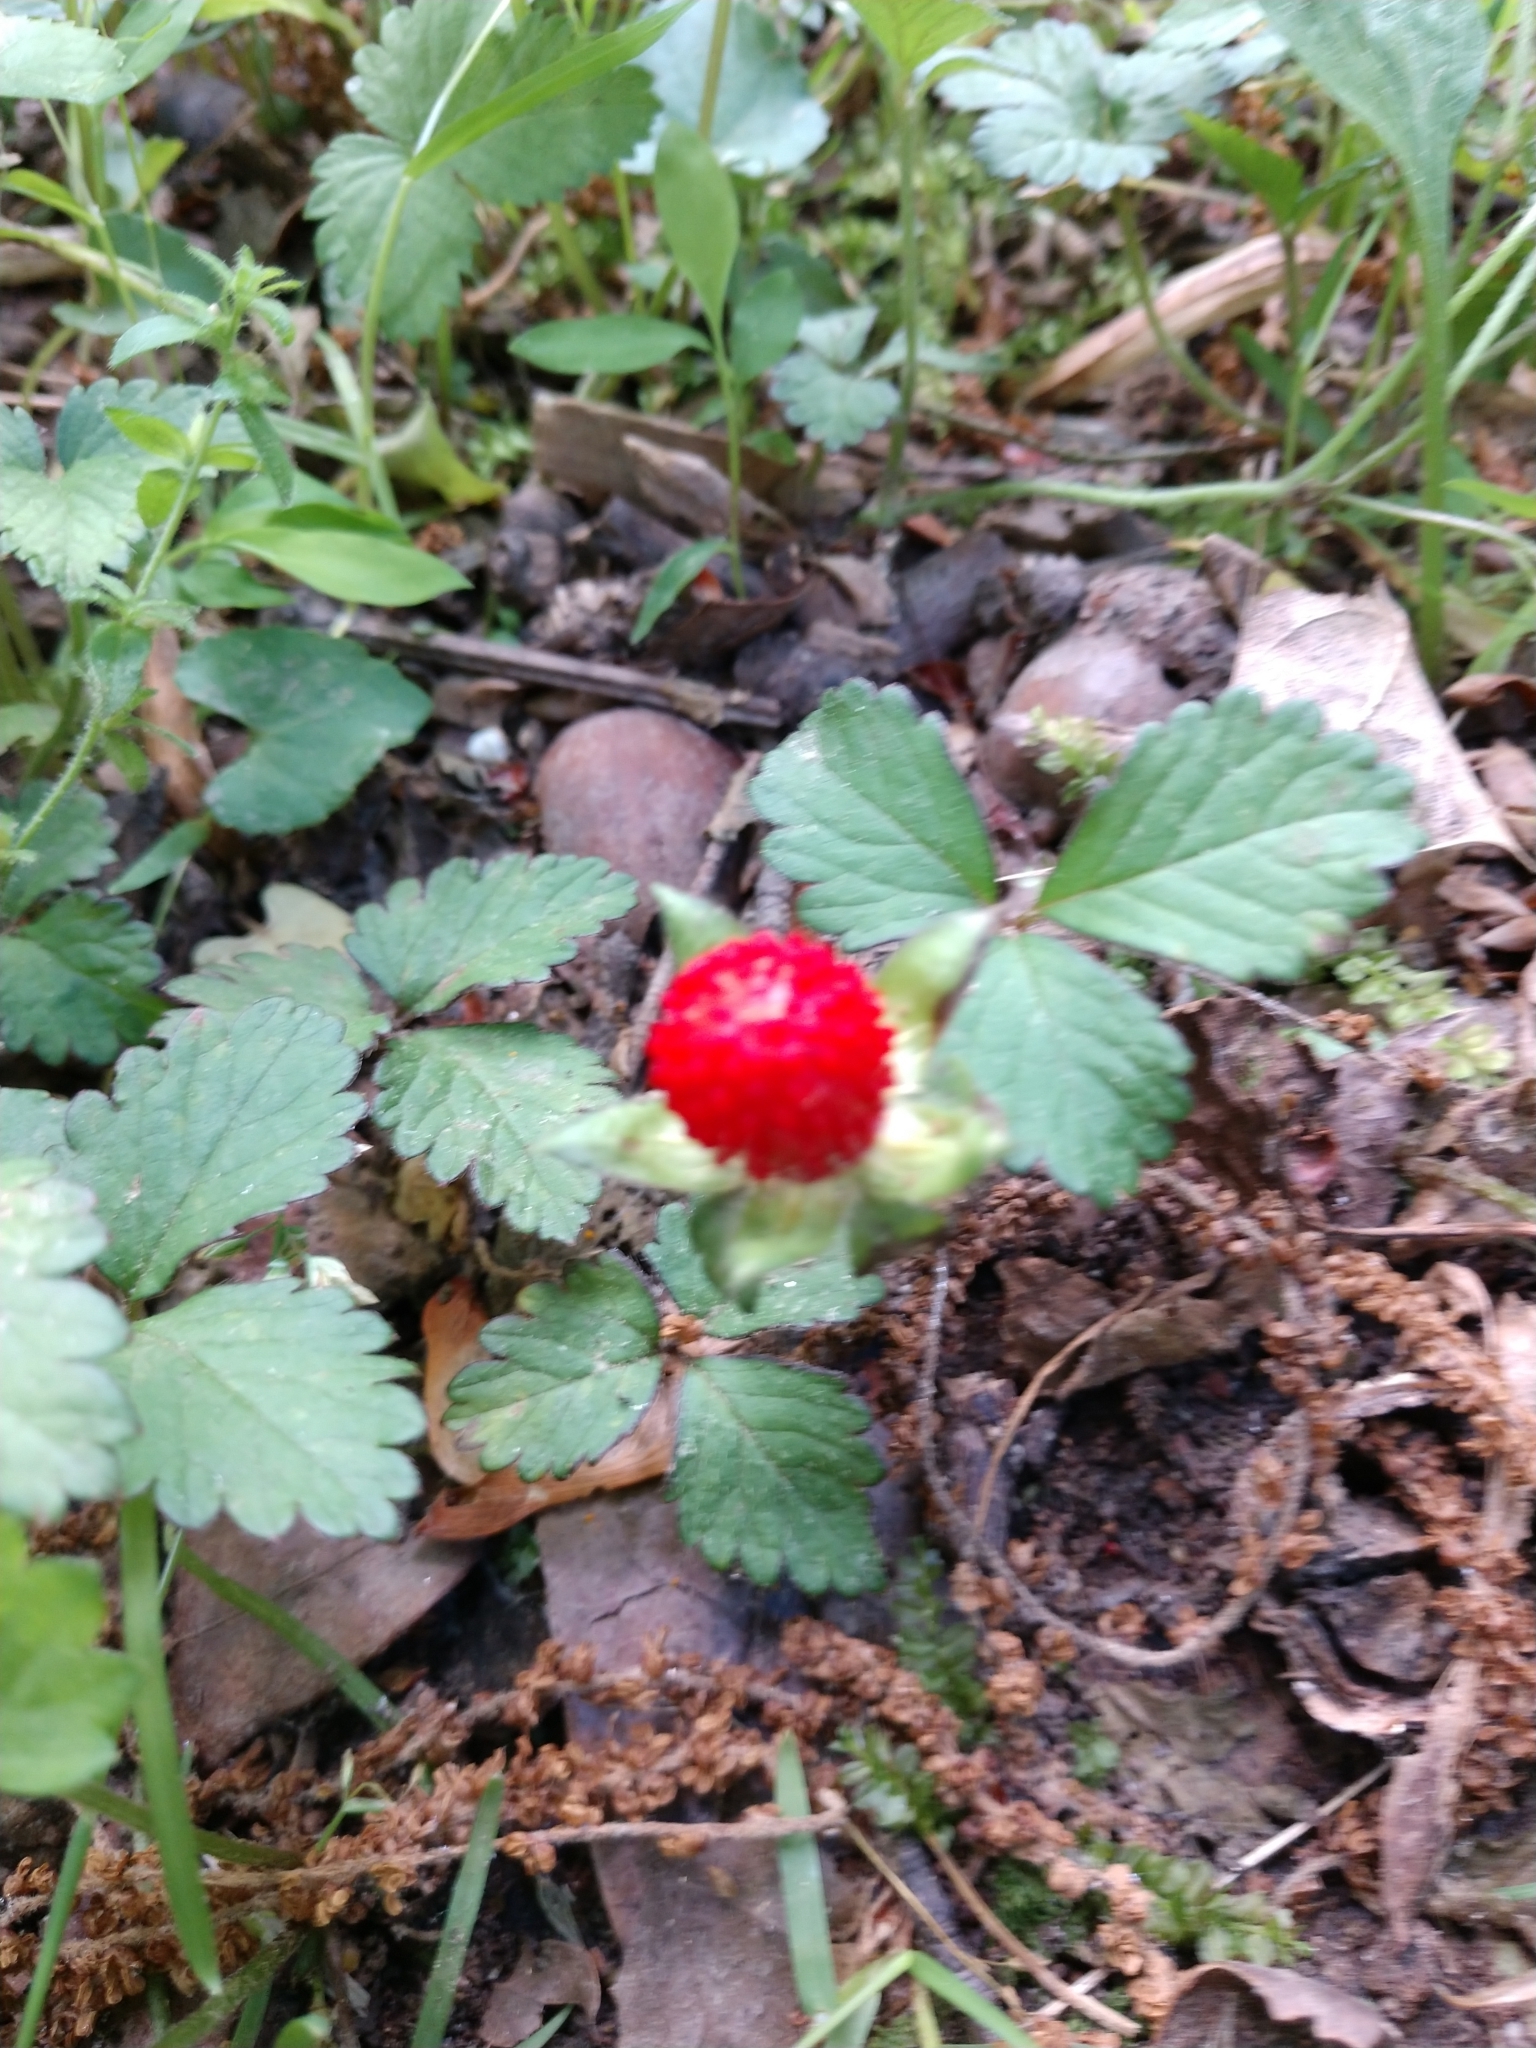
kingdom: Plantae
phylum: Tracheophyta
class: Magnoliopsida
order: Rosales
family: Rosaceae
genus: Potentilla
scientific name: Potentilla indica
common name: Yellow-flowered strawberry
